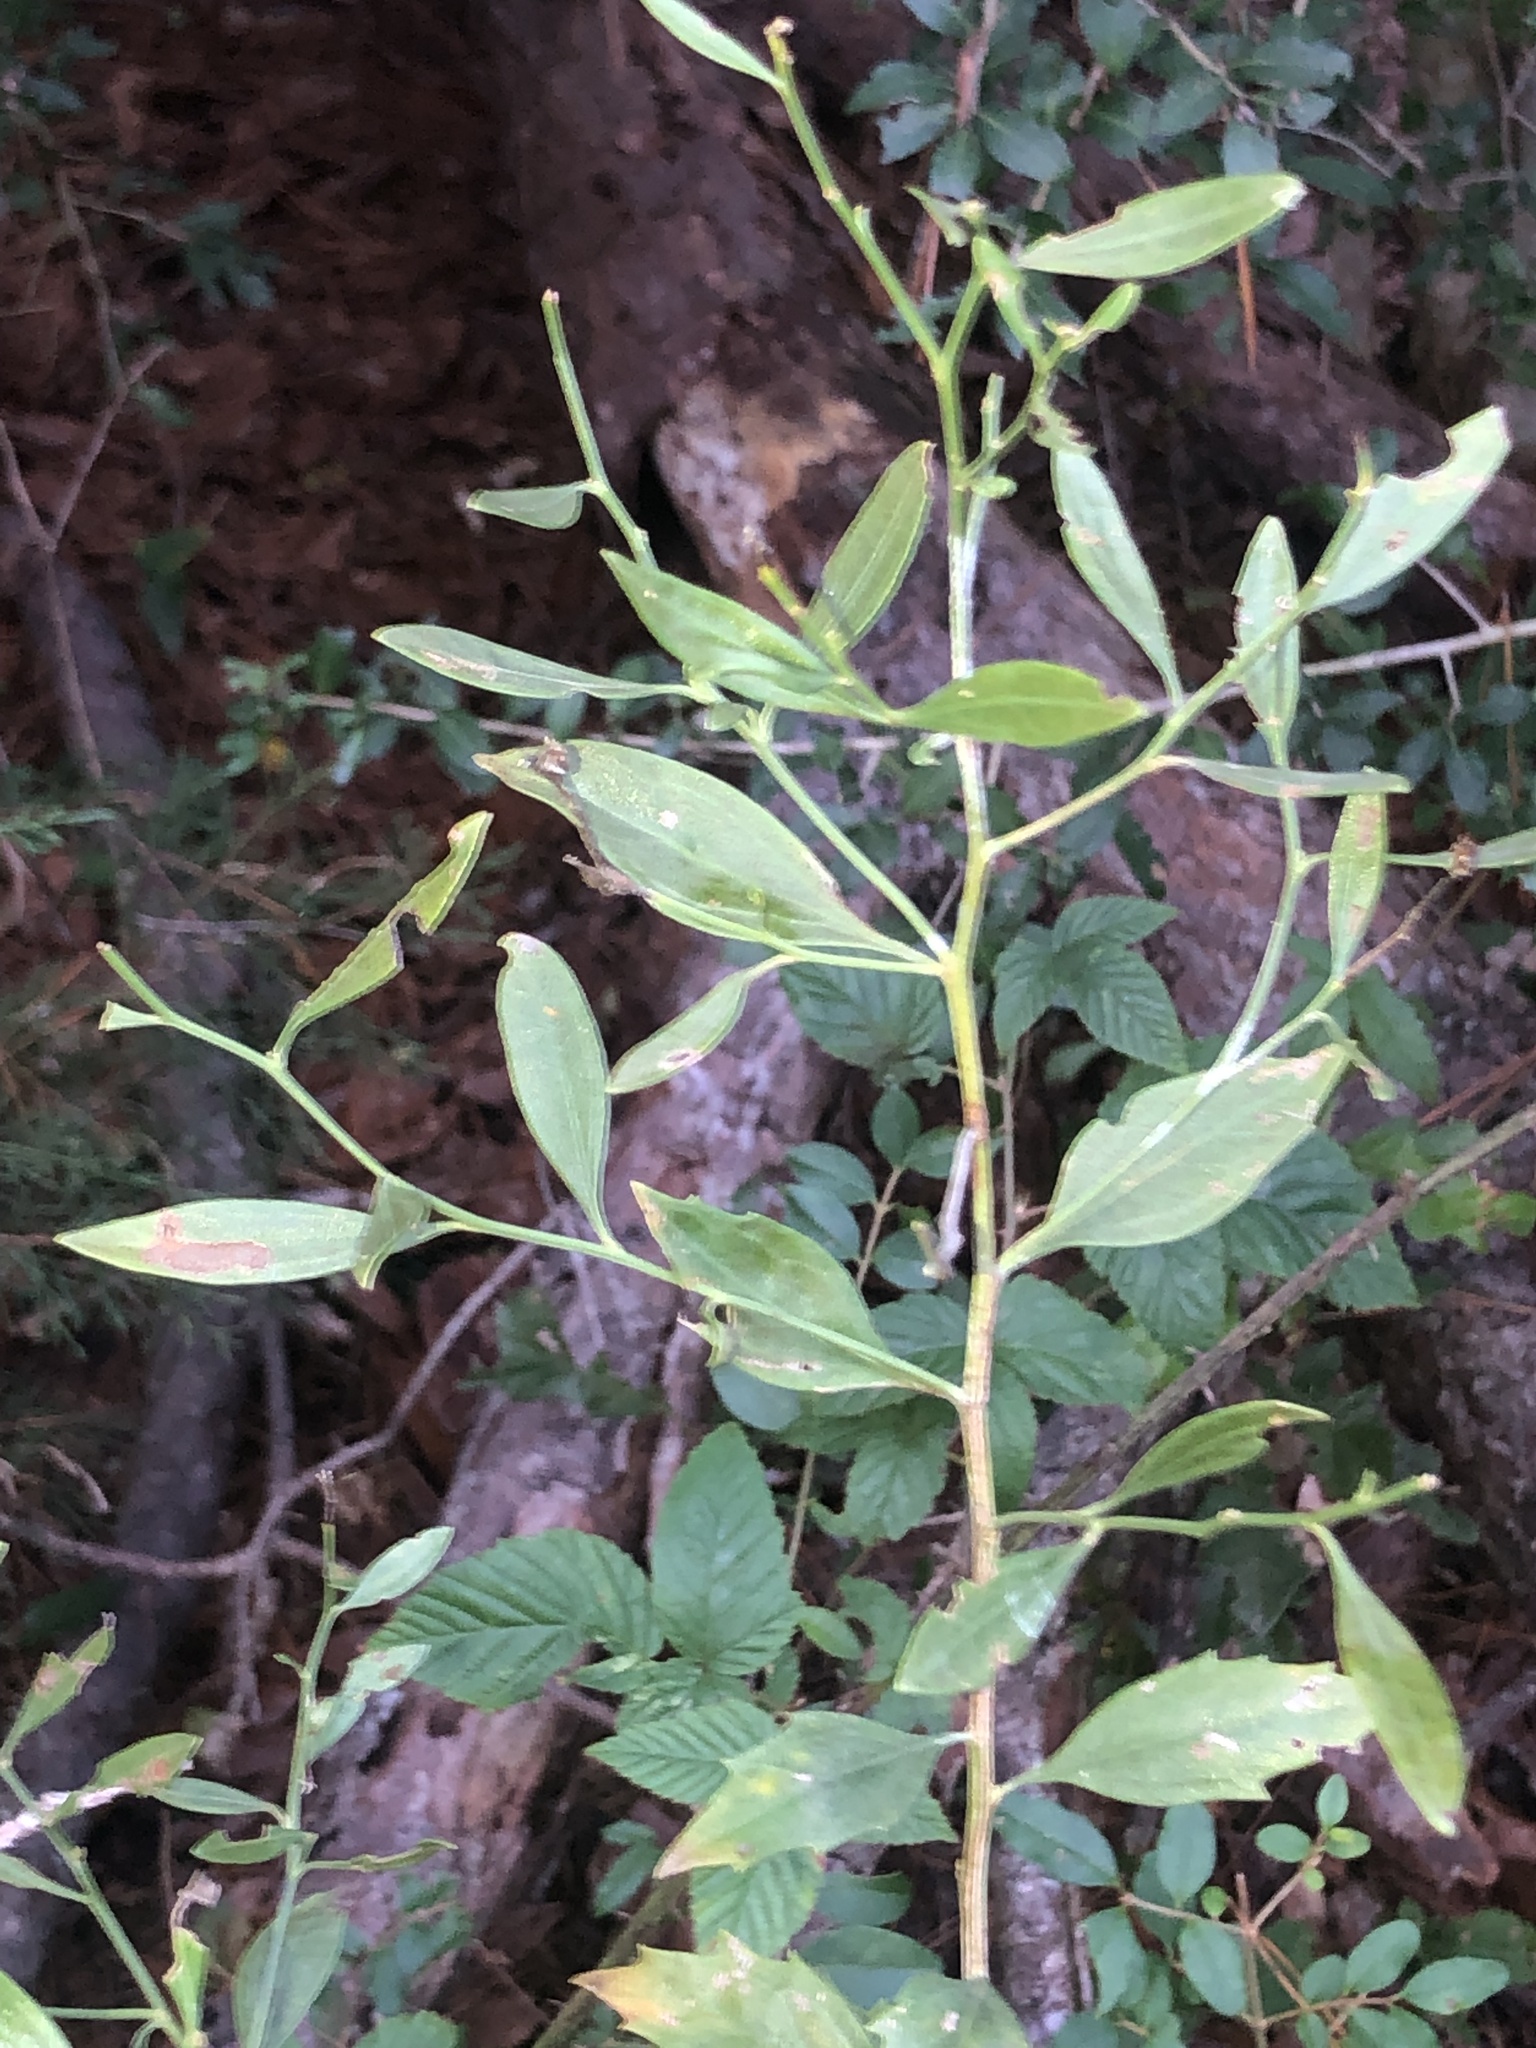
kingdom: Plantae
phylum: Tracheophyta
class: Magnoliopsida
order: Asterales
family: Asteraceae
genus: Baccharis
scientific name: Baccharis halimifolia
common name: Eastern baccharis
